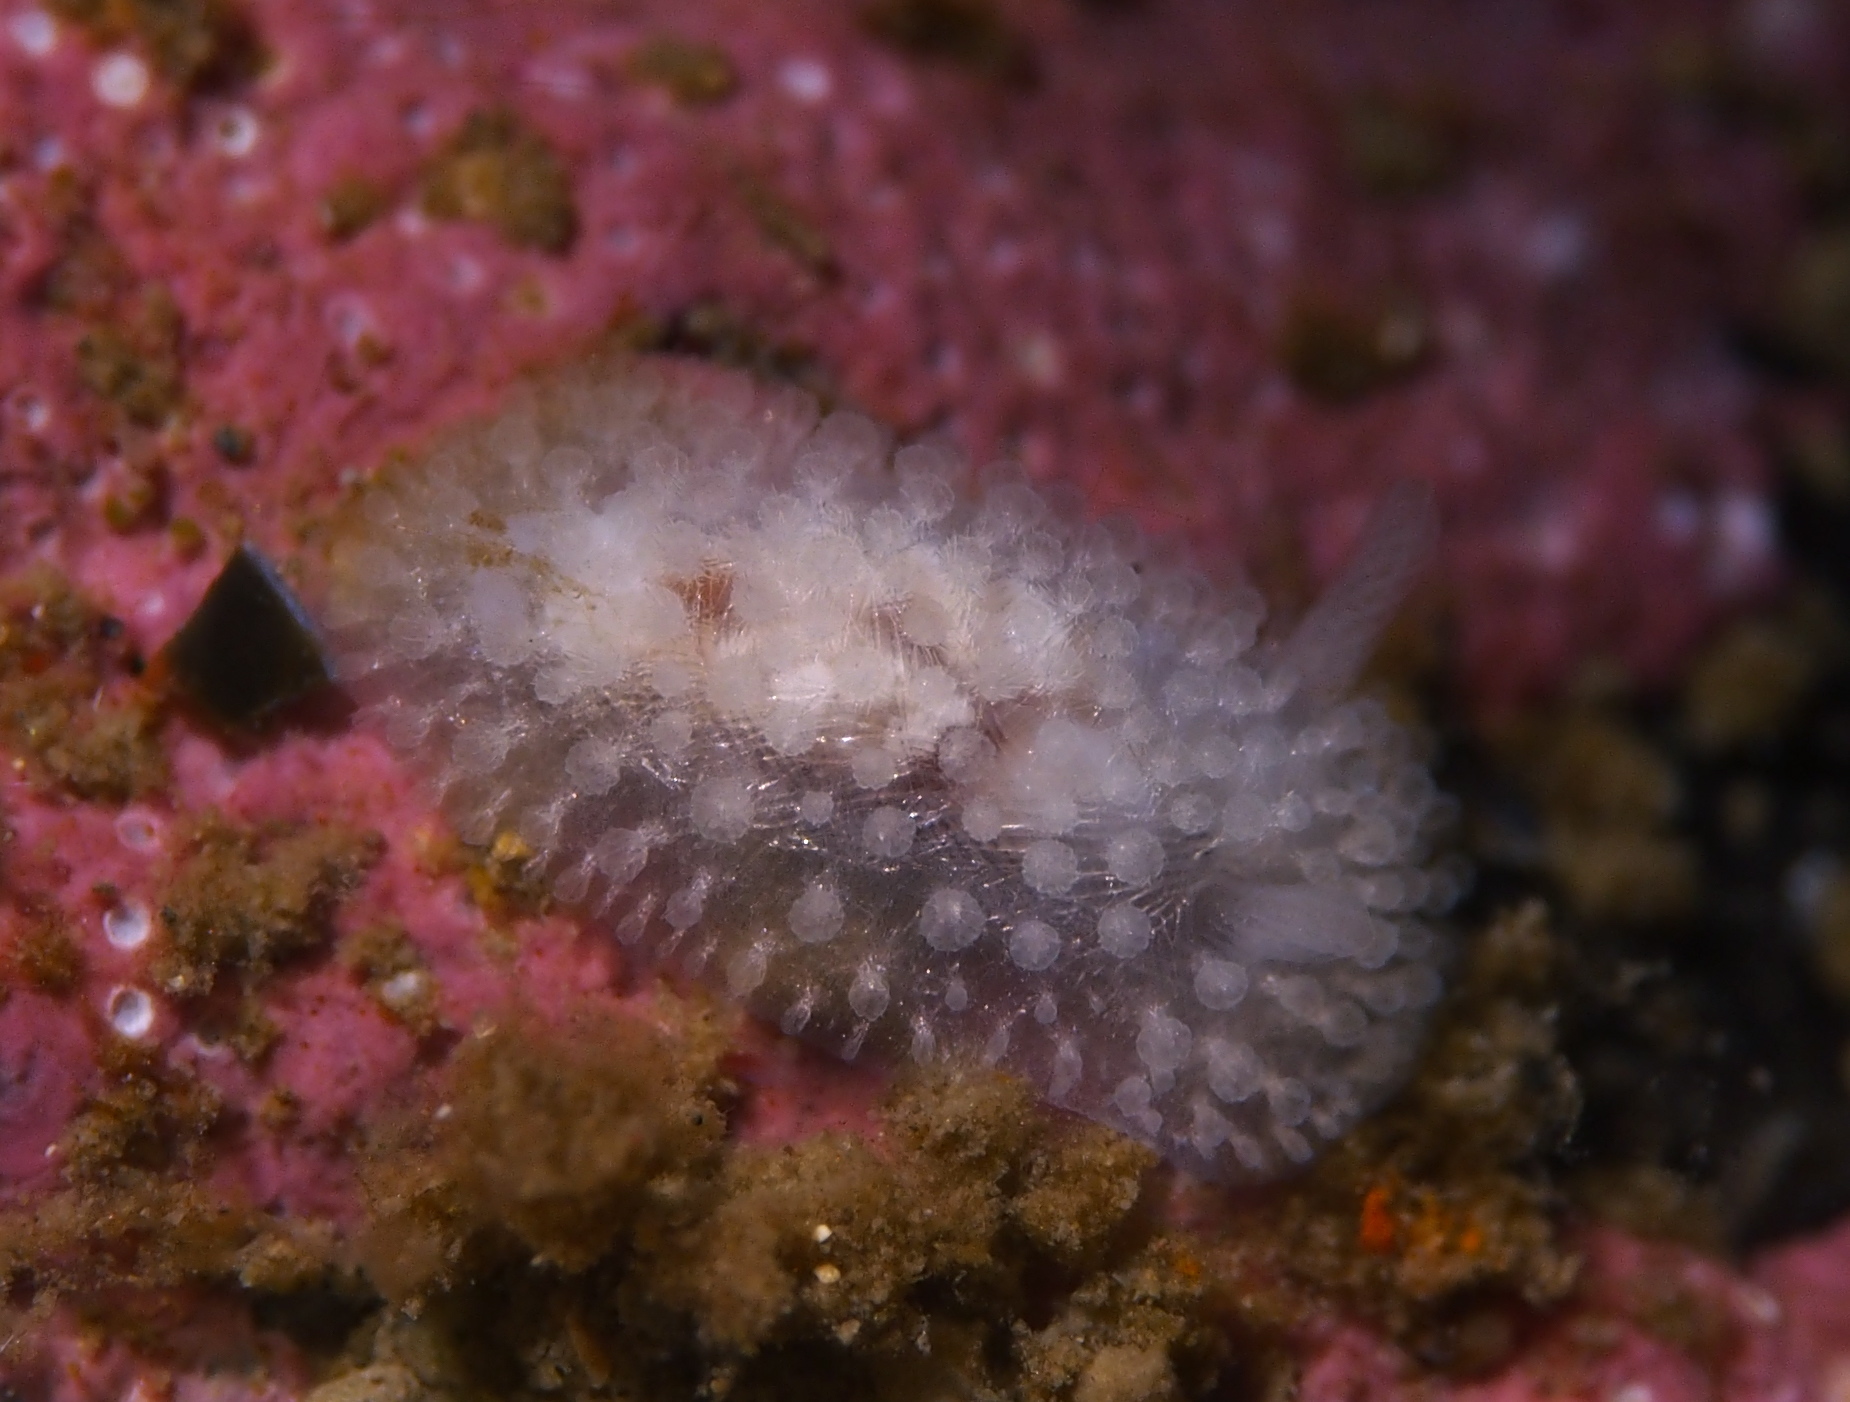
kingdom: Animalia
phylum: Mollusca
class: Gastropoda
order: Nudibranchia
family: Onchidorididae
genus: Onchidoris
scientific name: Onchidoris muricata
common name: Rough doris
